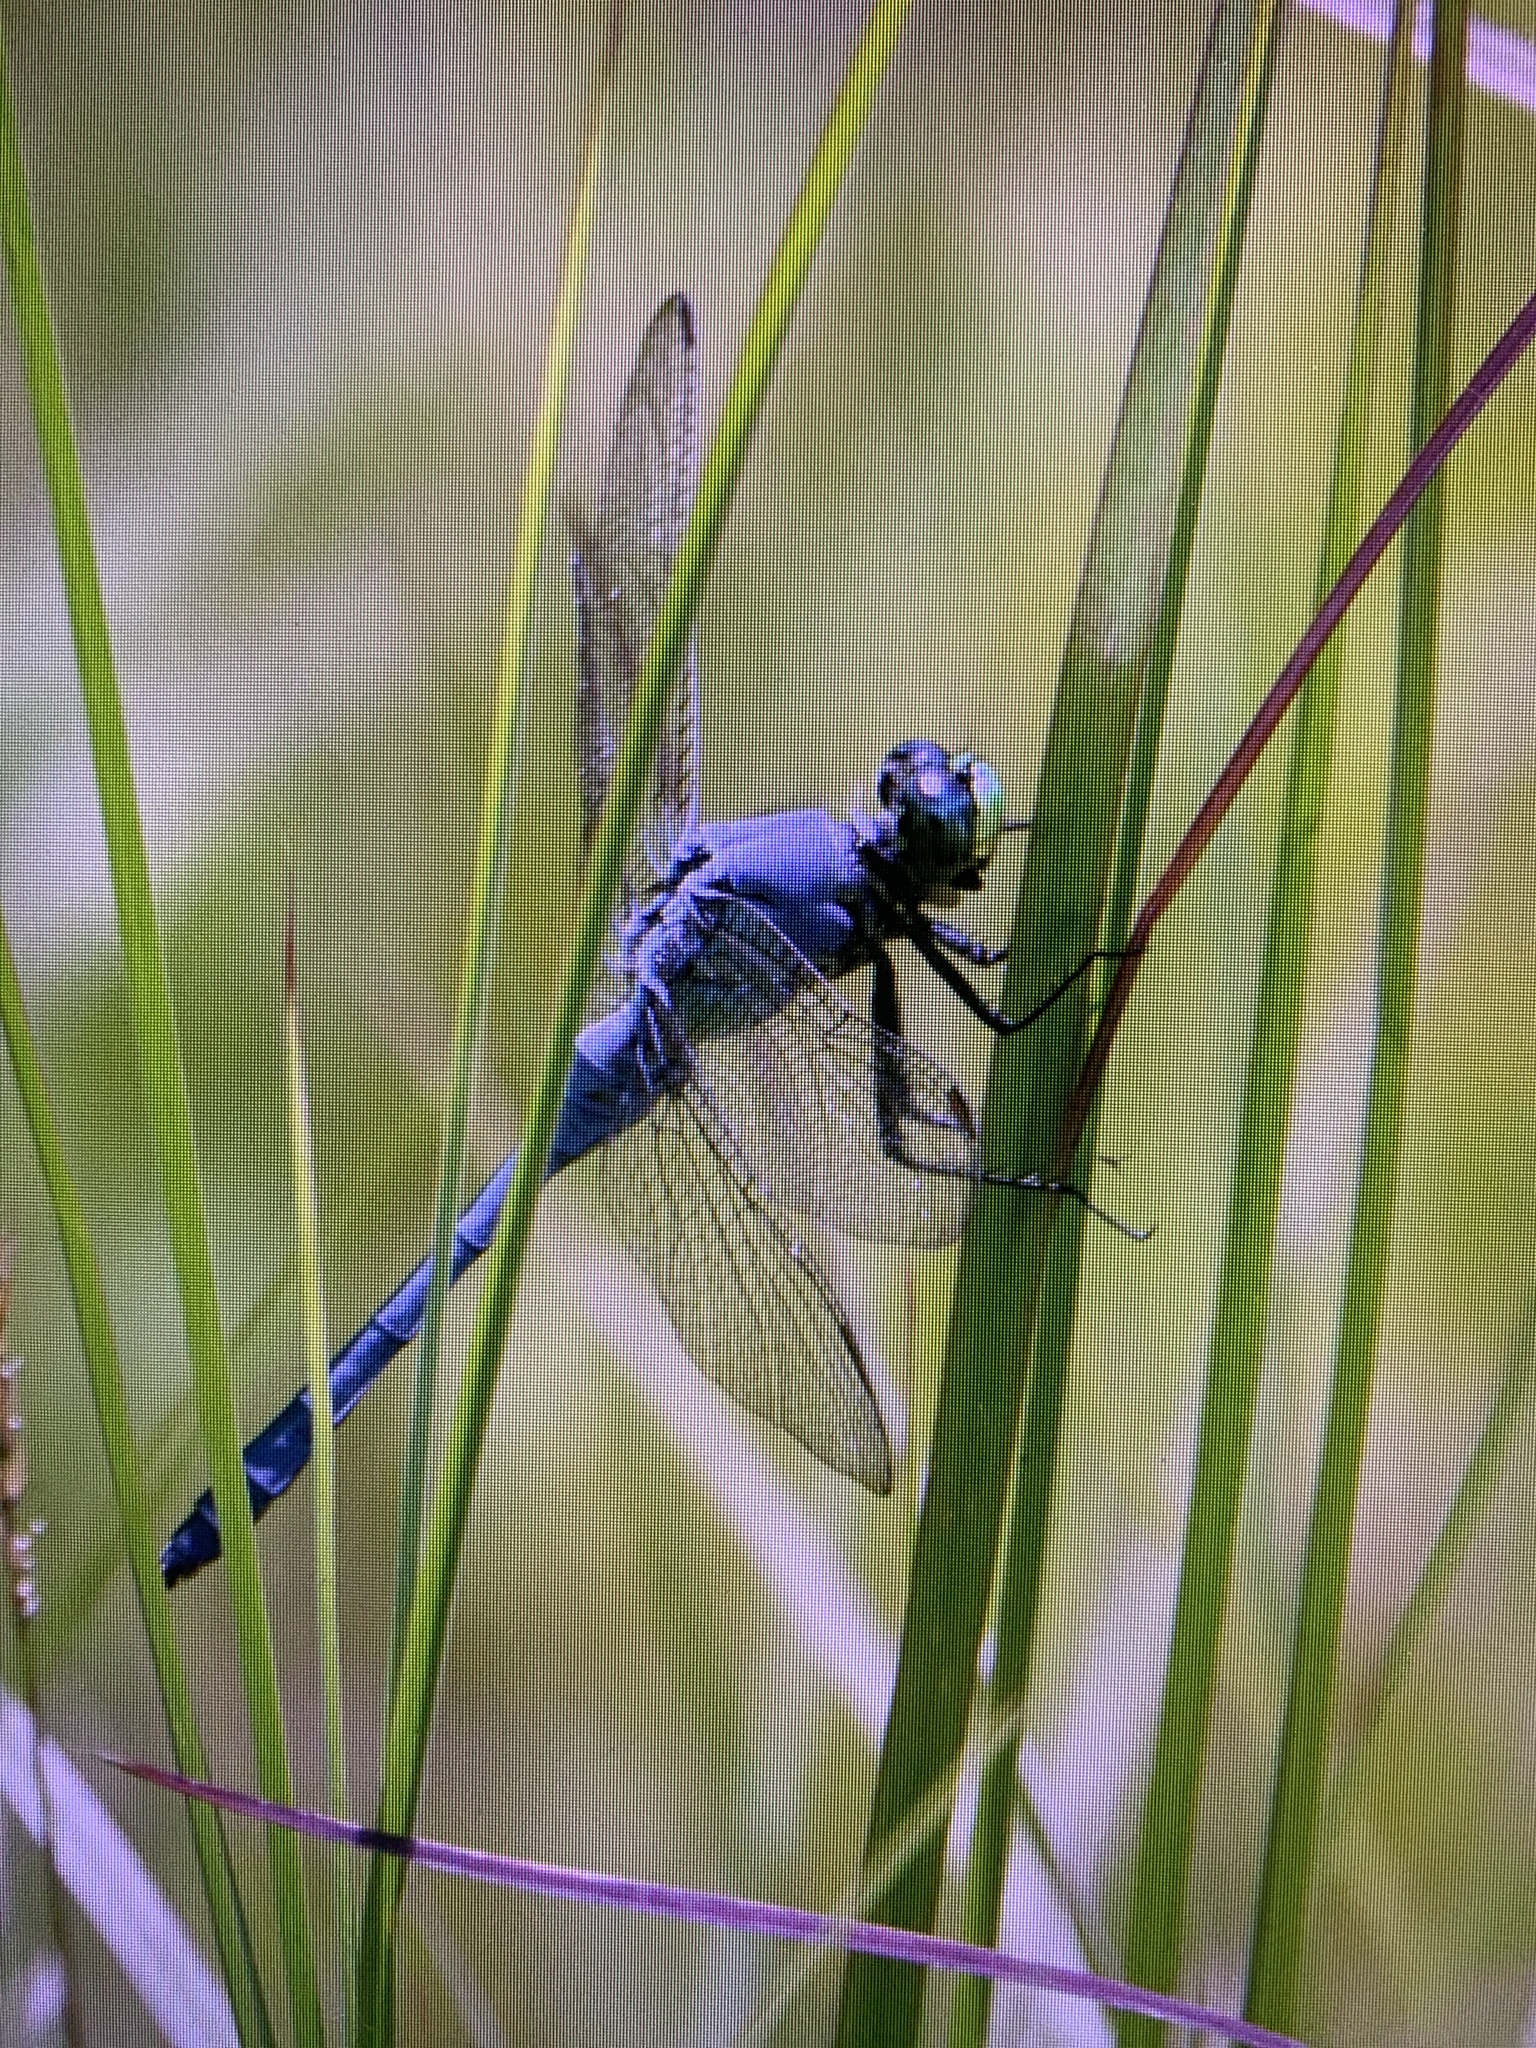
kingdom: Animalia
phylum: Arthropoda
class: Insecta
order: Odonata
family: Libellulidae
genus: Erythemis
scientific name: Erythemis simplicicollis
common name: Eastern pondhawk
